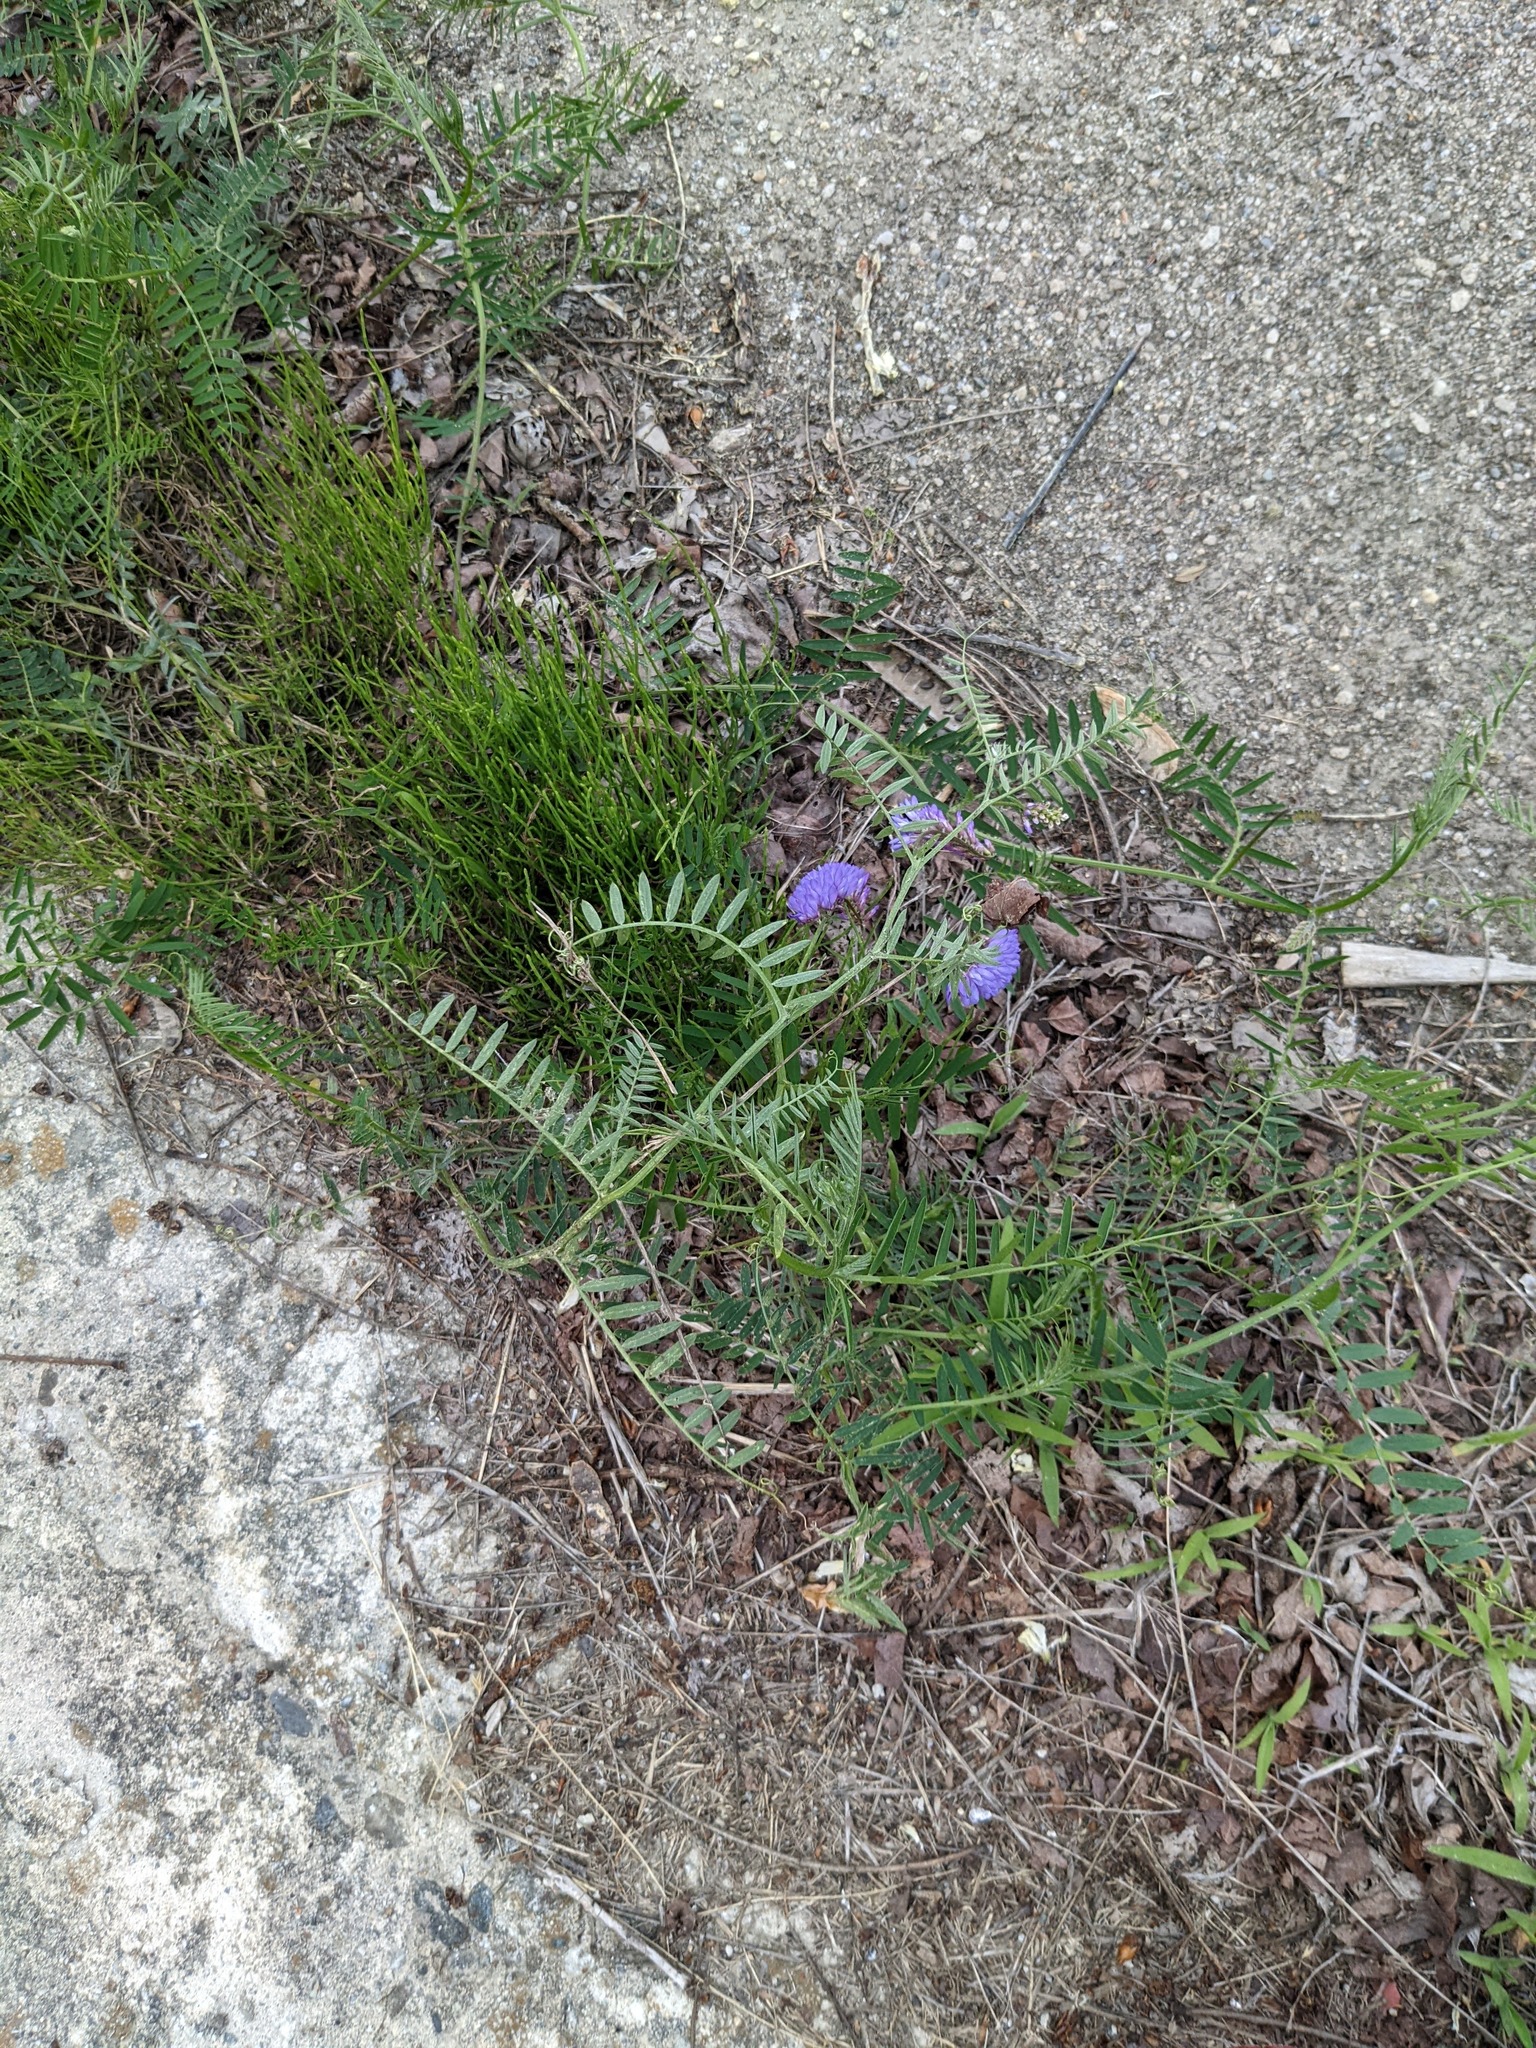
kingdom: Plantae
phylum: Tracheophyta
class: Magnoliopsida
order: Fabales
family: Fabaceae
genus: Vicia
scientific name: Vicia cracca
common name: Bird vetch
